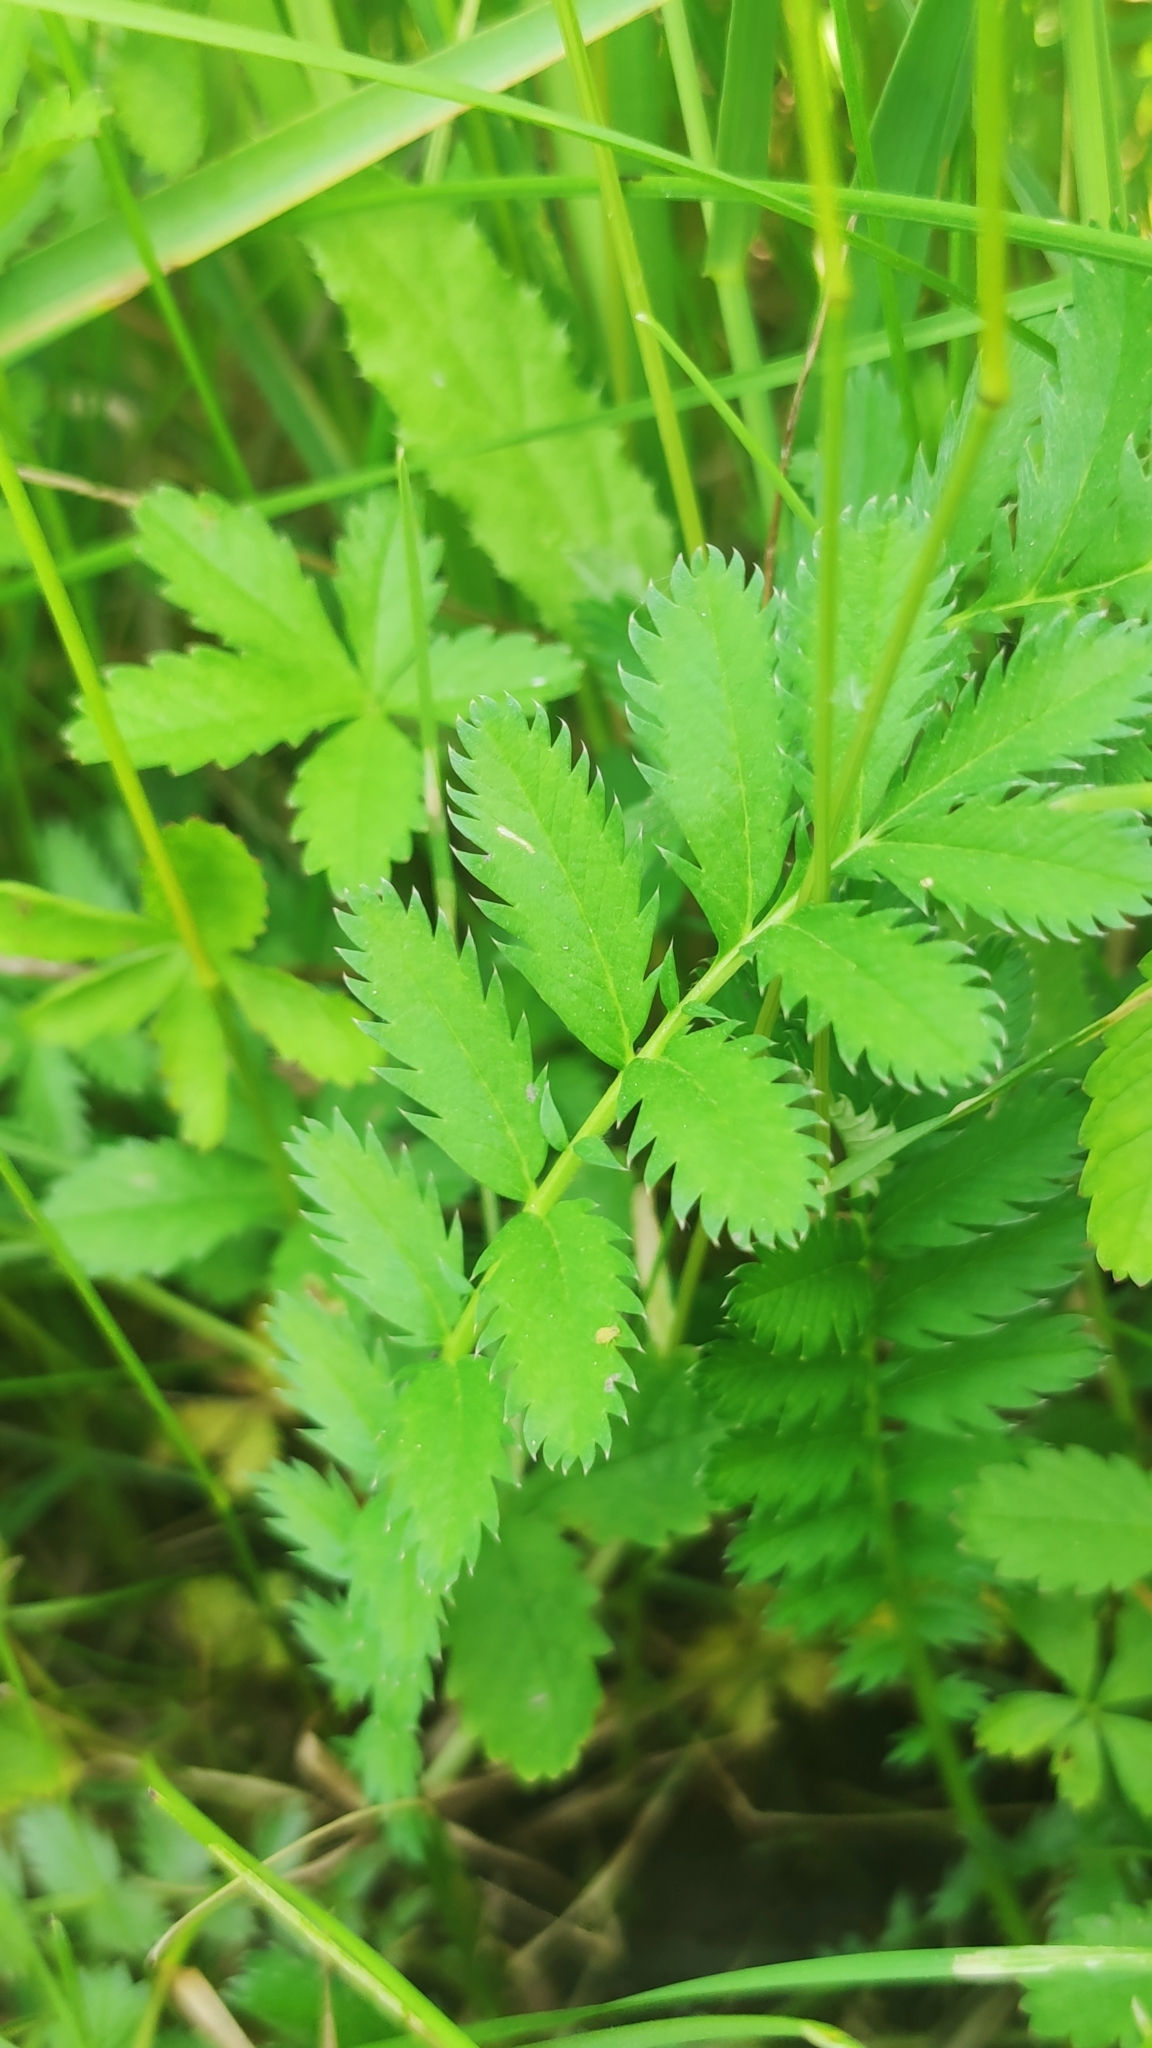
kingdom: Plantae
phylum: Tracheophyta
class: Magnoliopsida
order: Rosales
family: Rosaceae
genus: Argentina
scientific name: Argentina anserina
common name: Common silverweed
